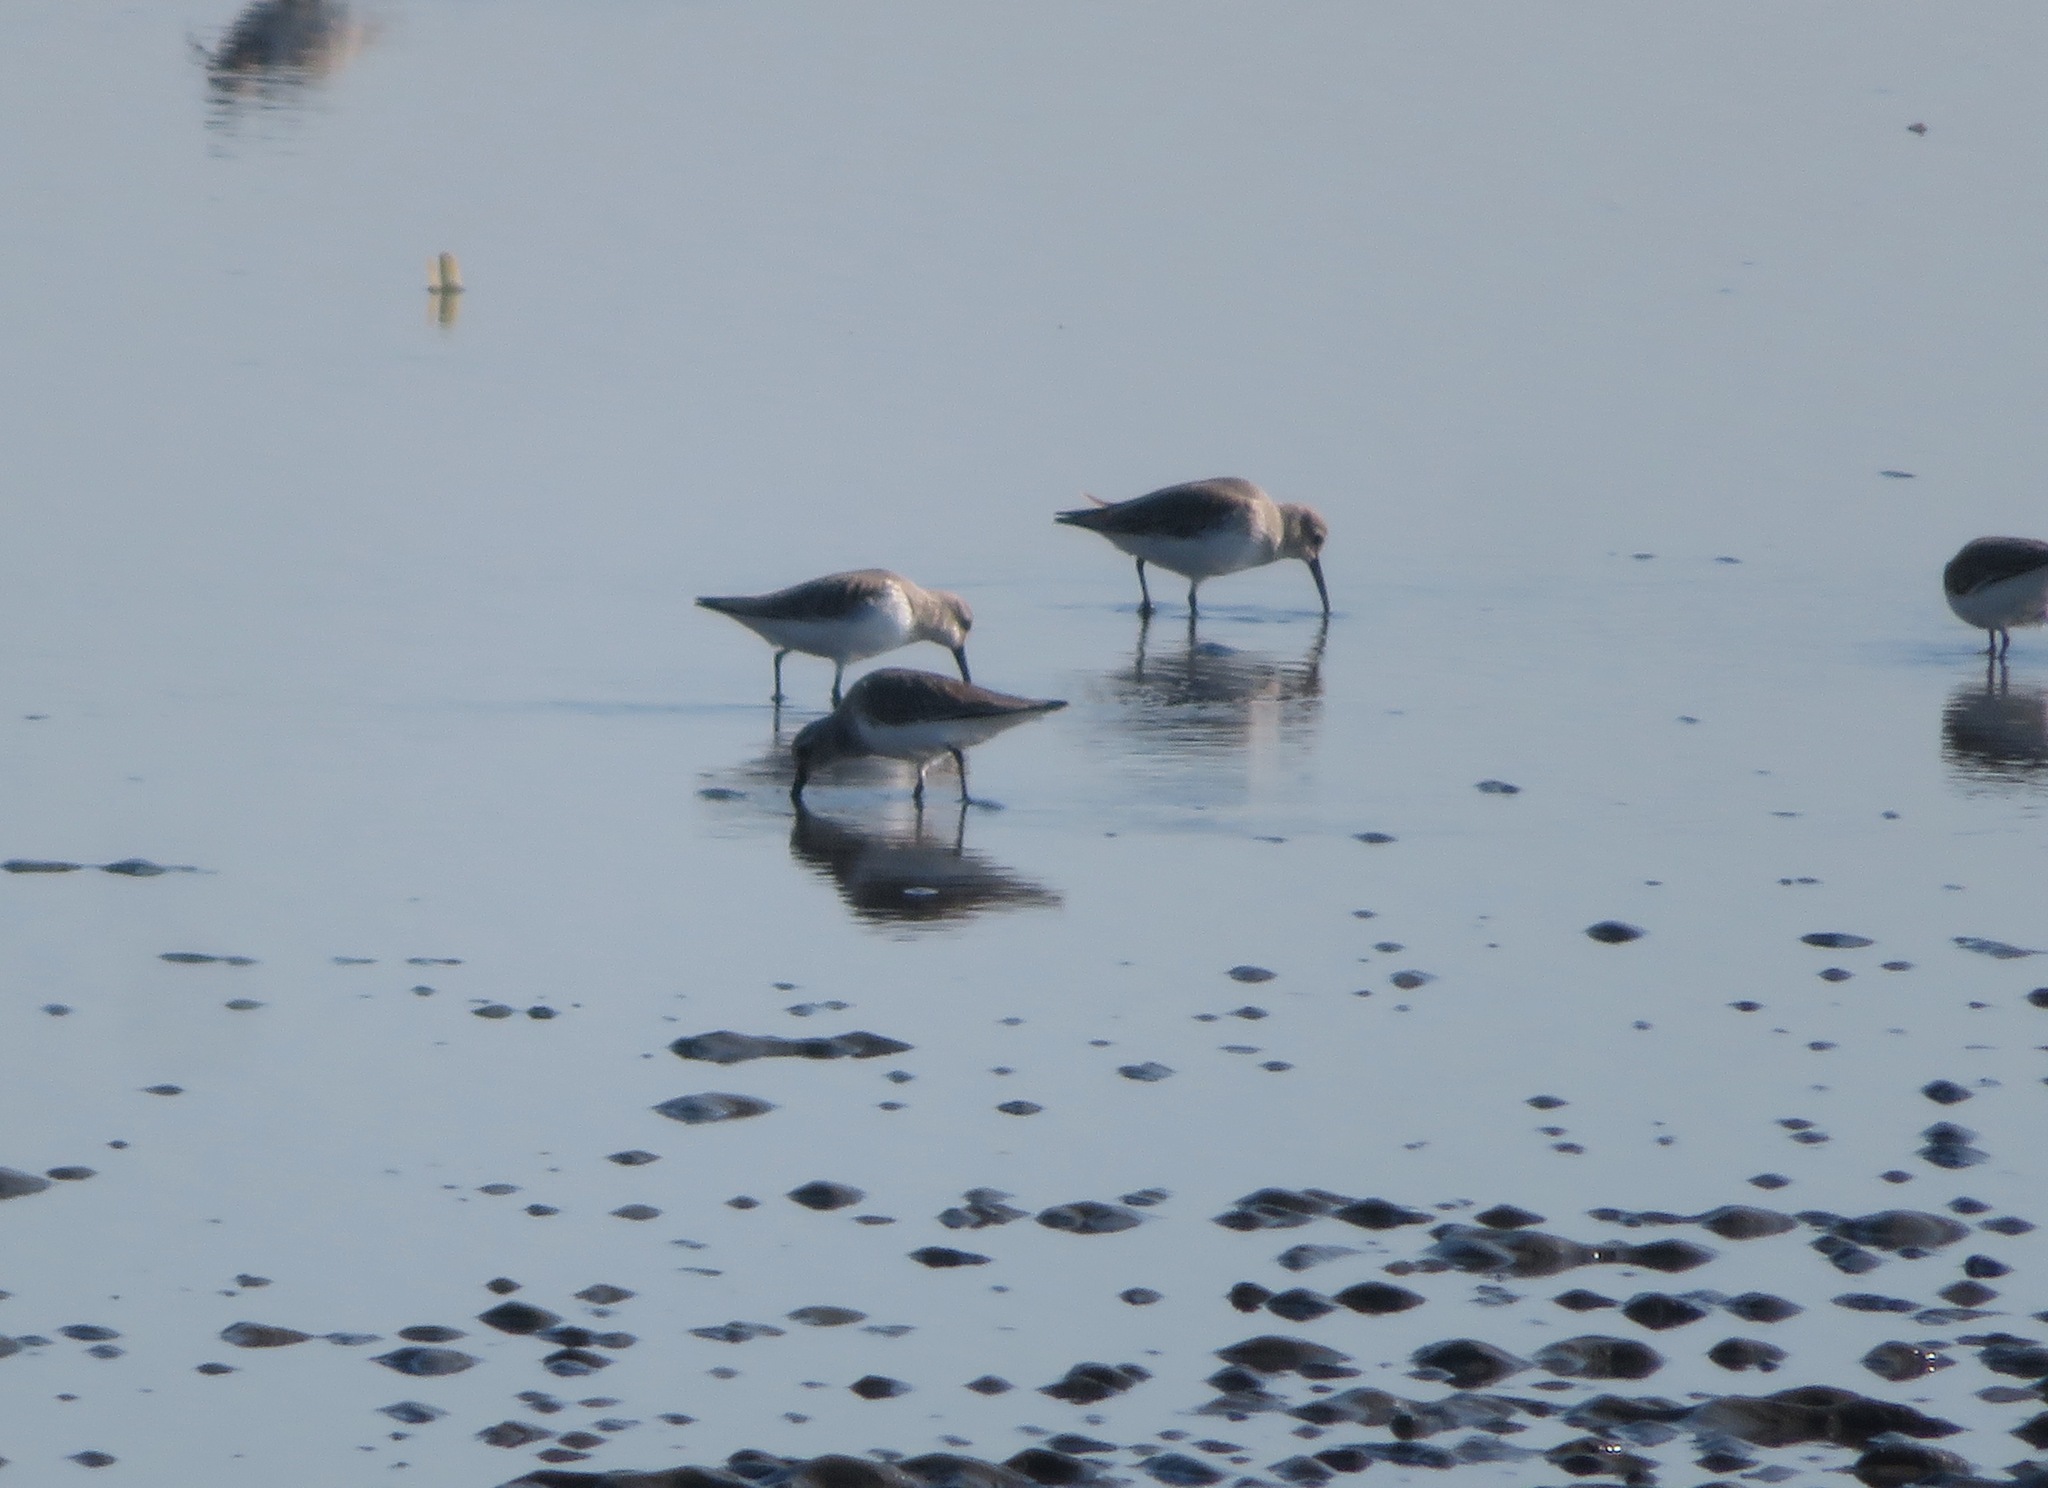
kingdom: Animalia
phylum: Chordata
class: Aves
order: Charadriiformes
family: Scolopacidae
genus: Calidris
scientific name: Calidris alpina
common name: Dunlin
